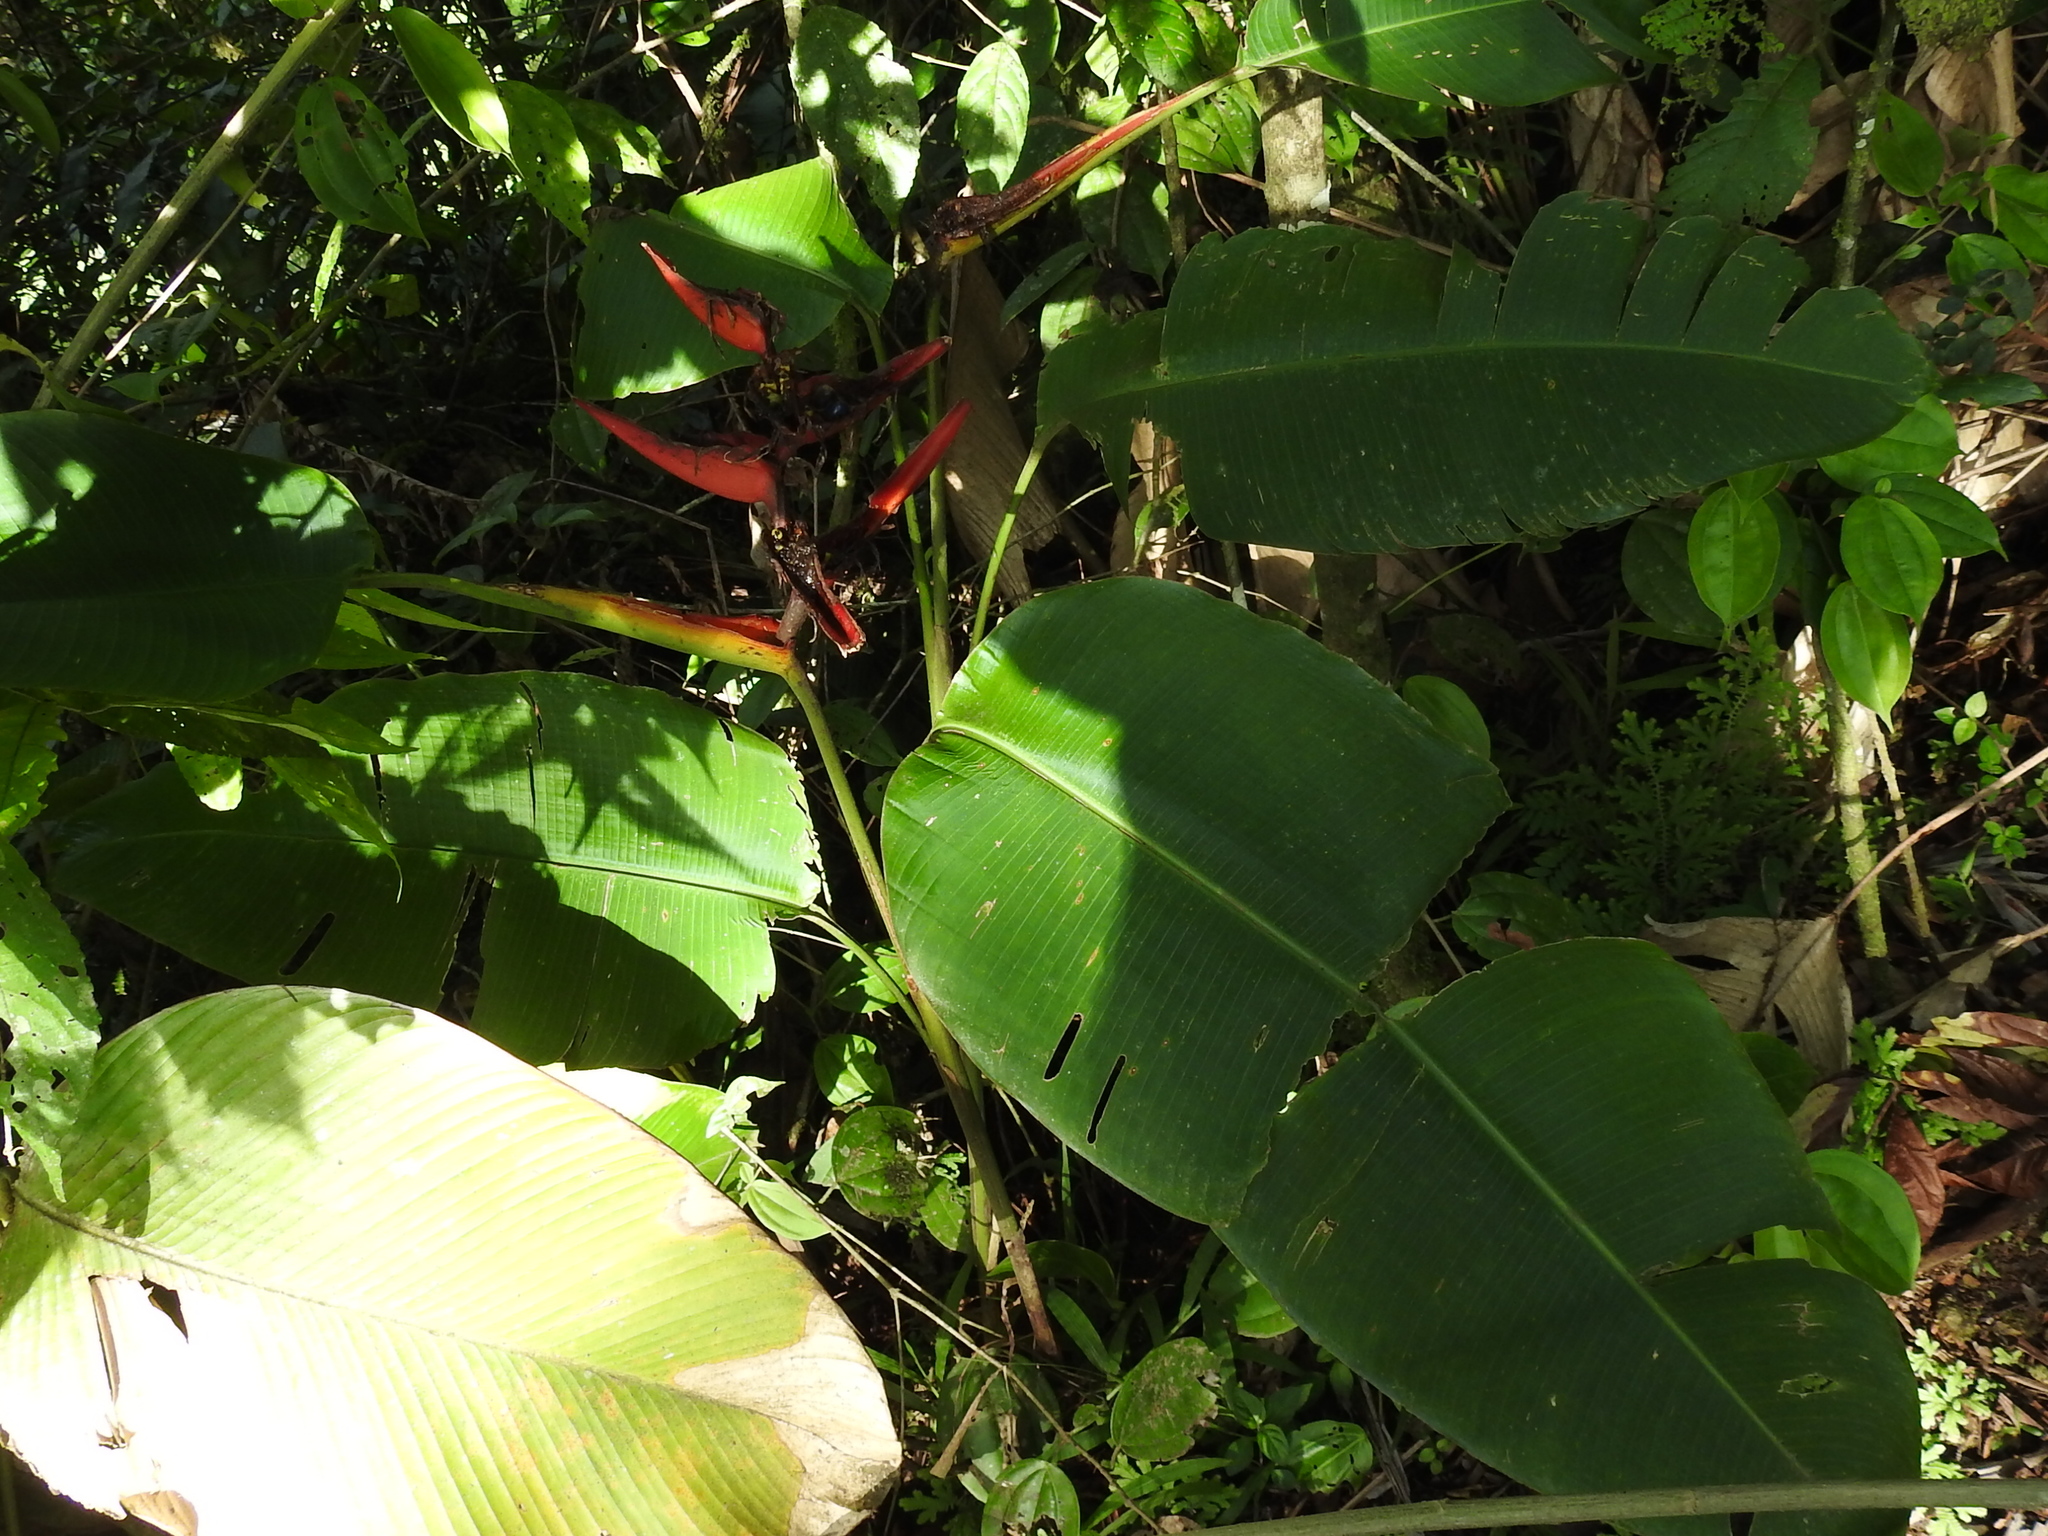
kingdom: Plantae
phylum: Tracheophyta
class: Liliopsida
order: Zingiberales
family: Heliconiaceae
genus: Heliconia
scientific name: Heliconia tortuosa
